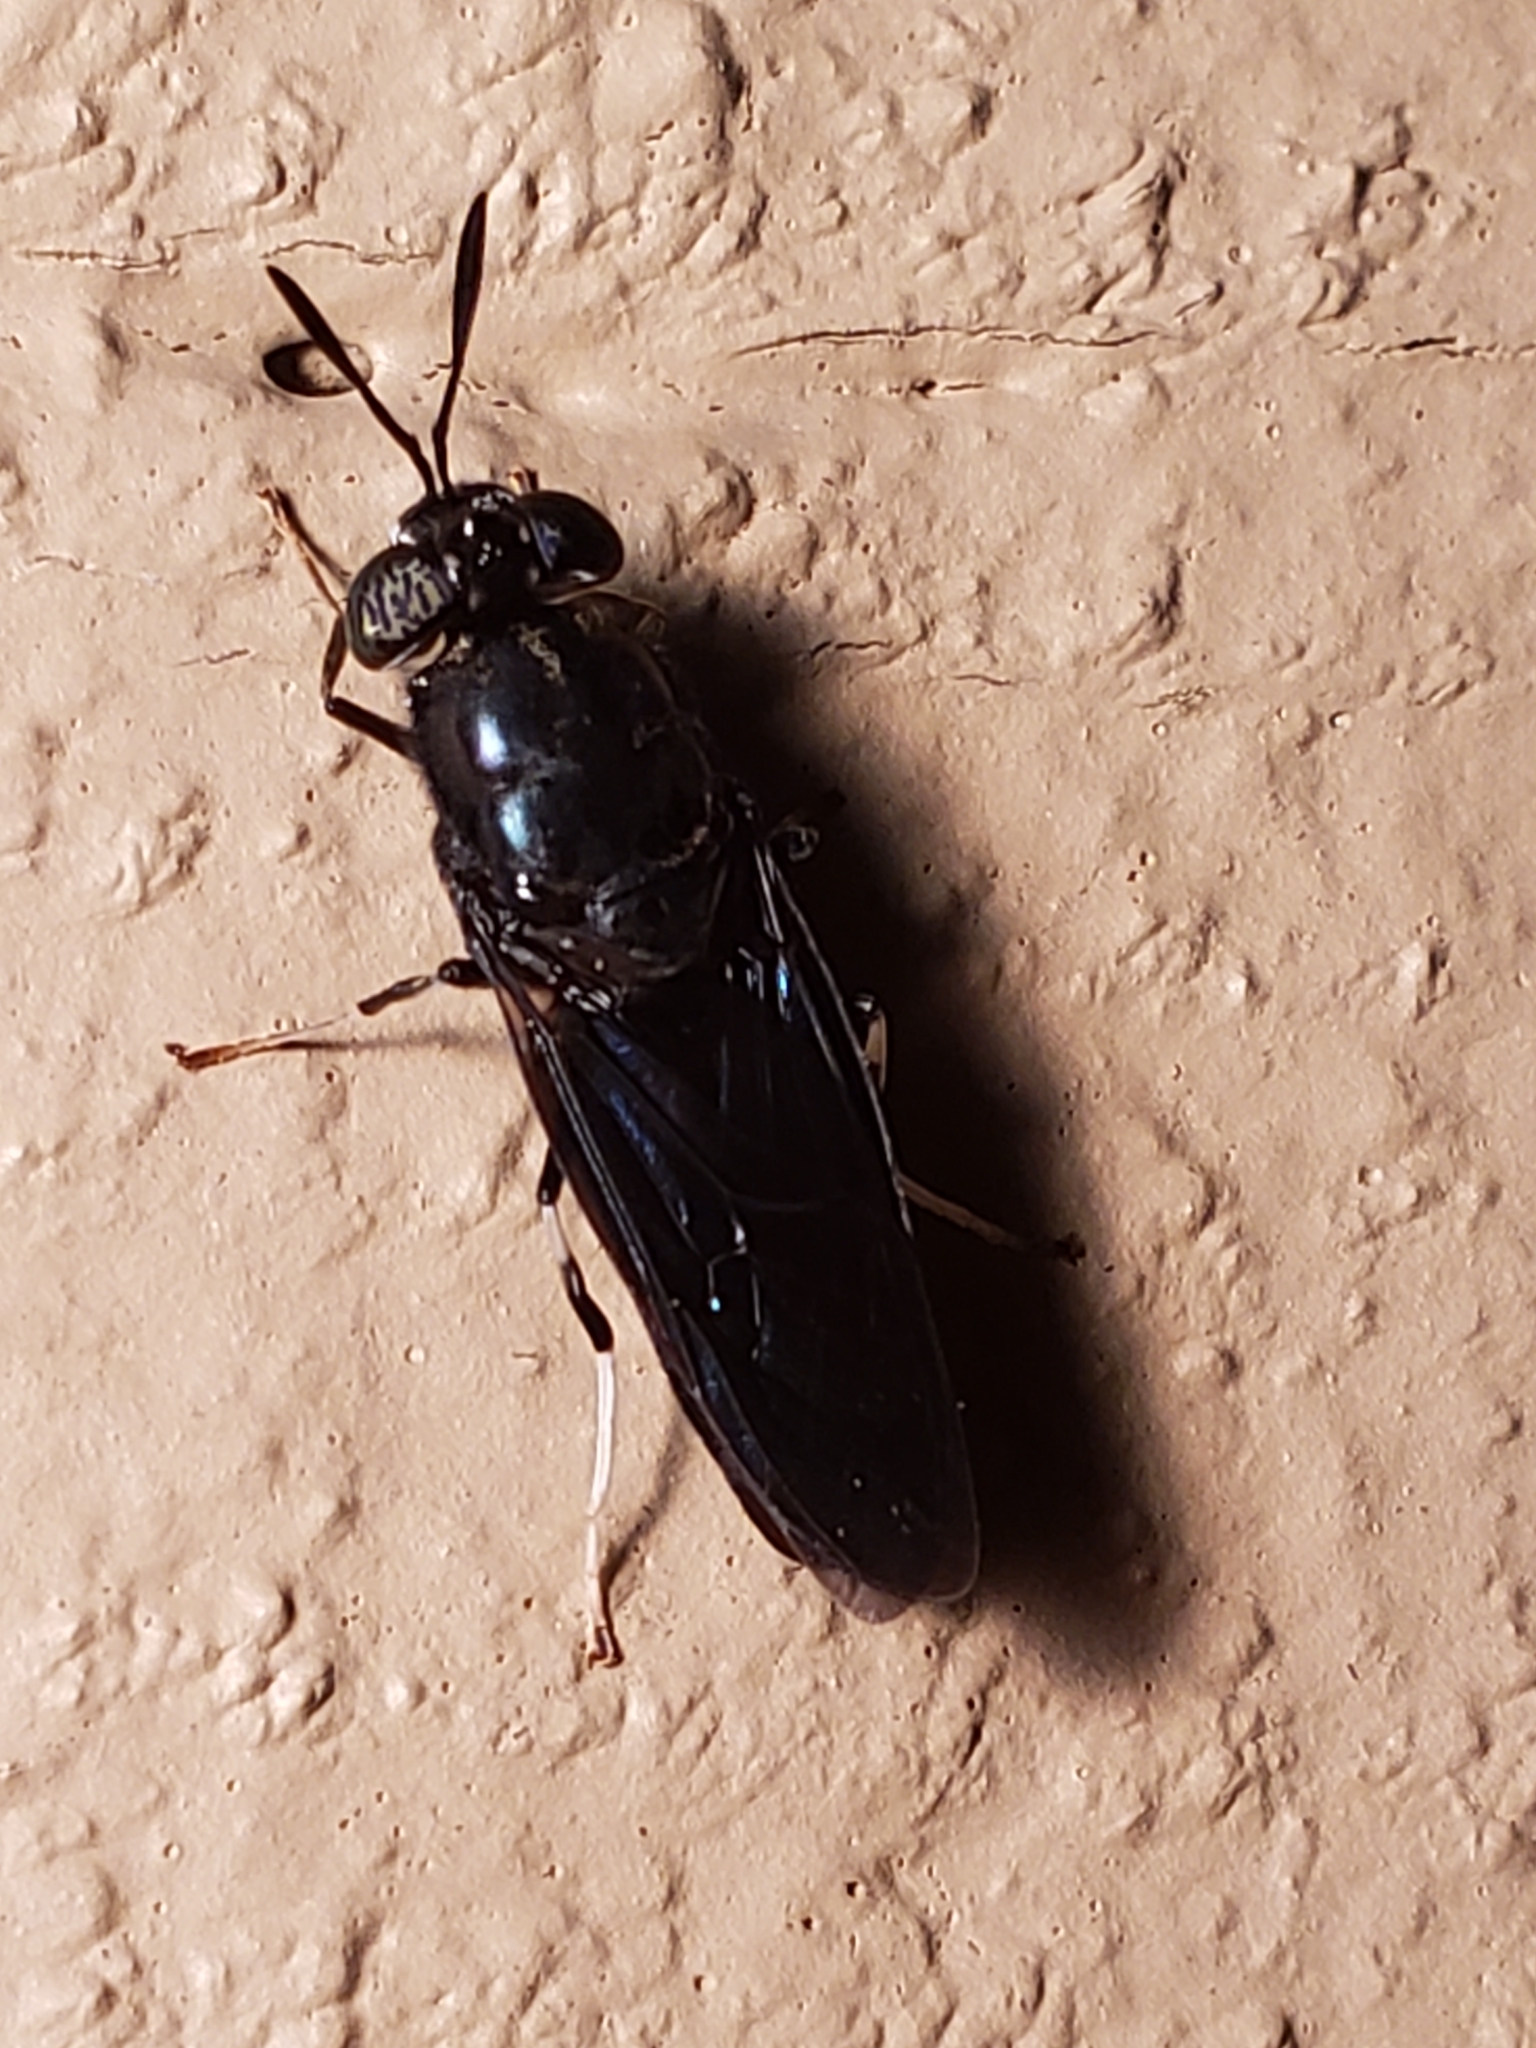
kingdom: Animalia
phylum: Arthropoda
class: Insecta
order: Diptera
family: Stratiomyidae
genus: Hermetia
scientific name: Hermetia illucens
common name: Black soldier fly
